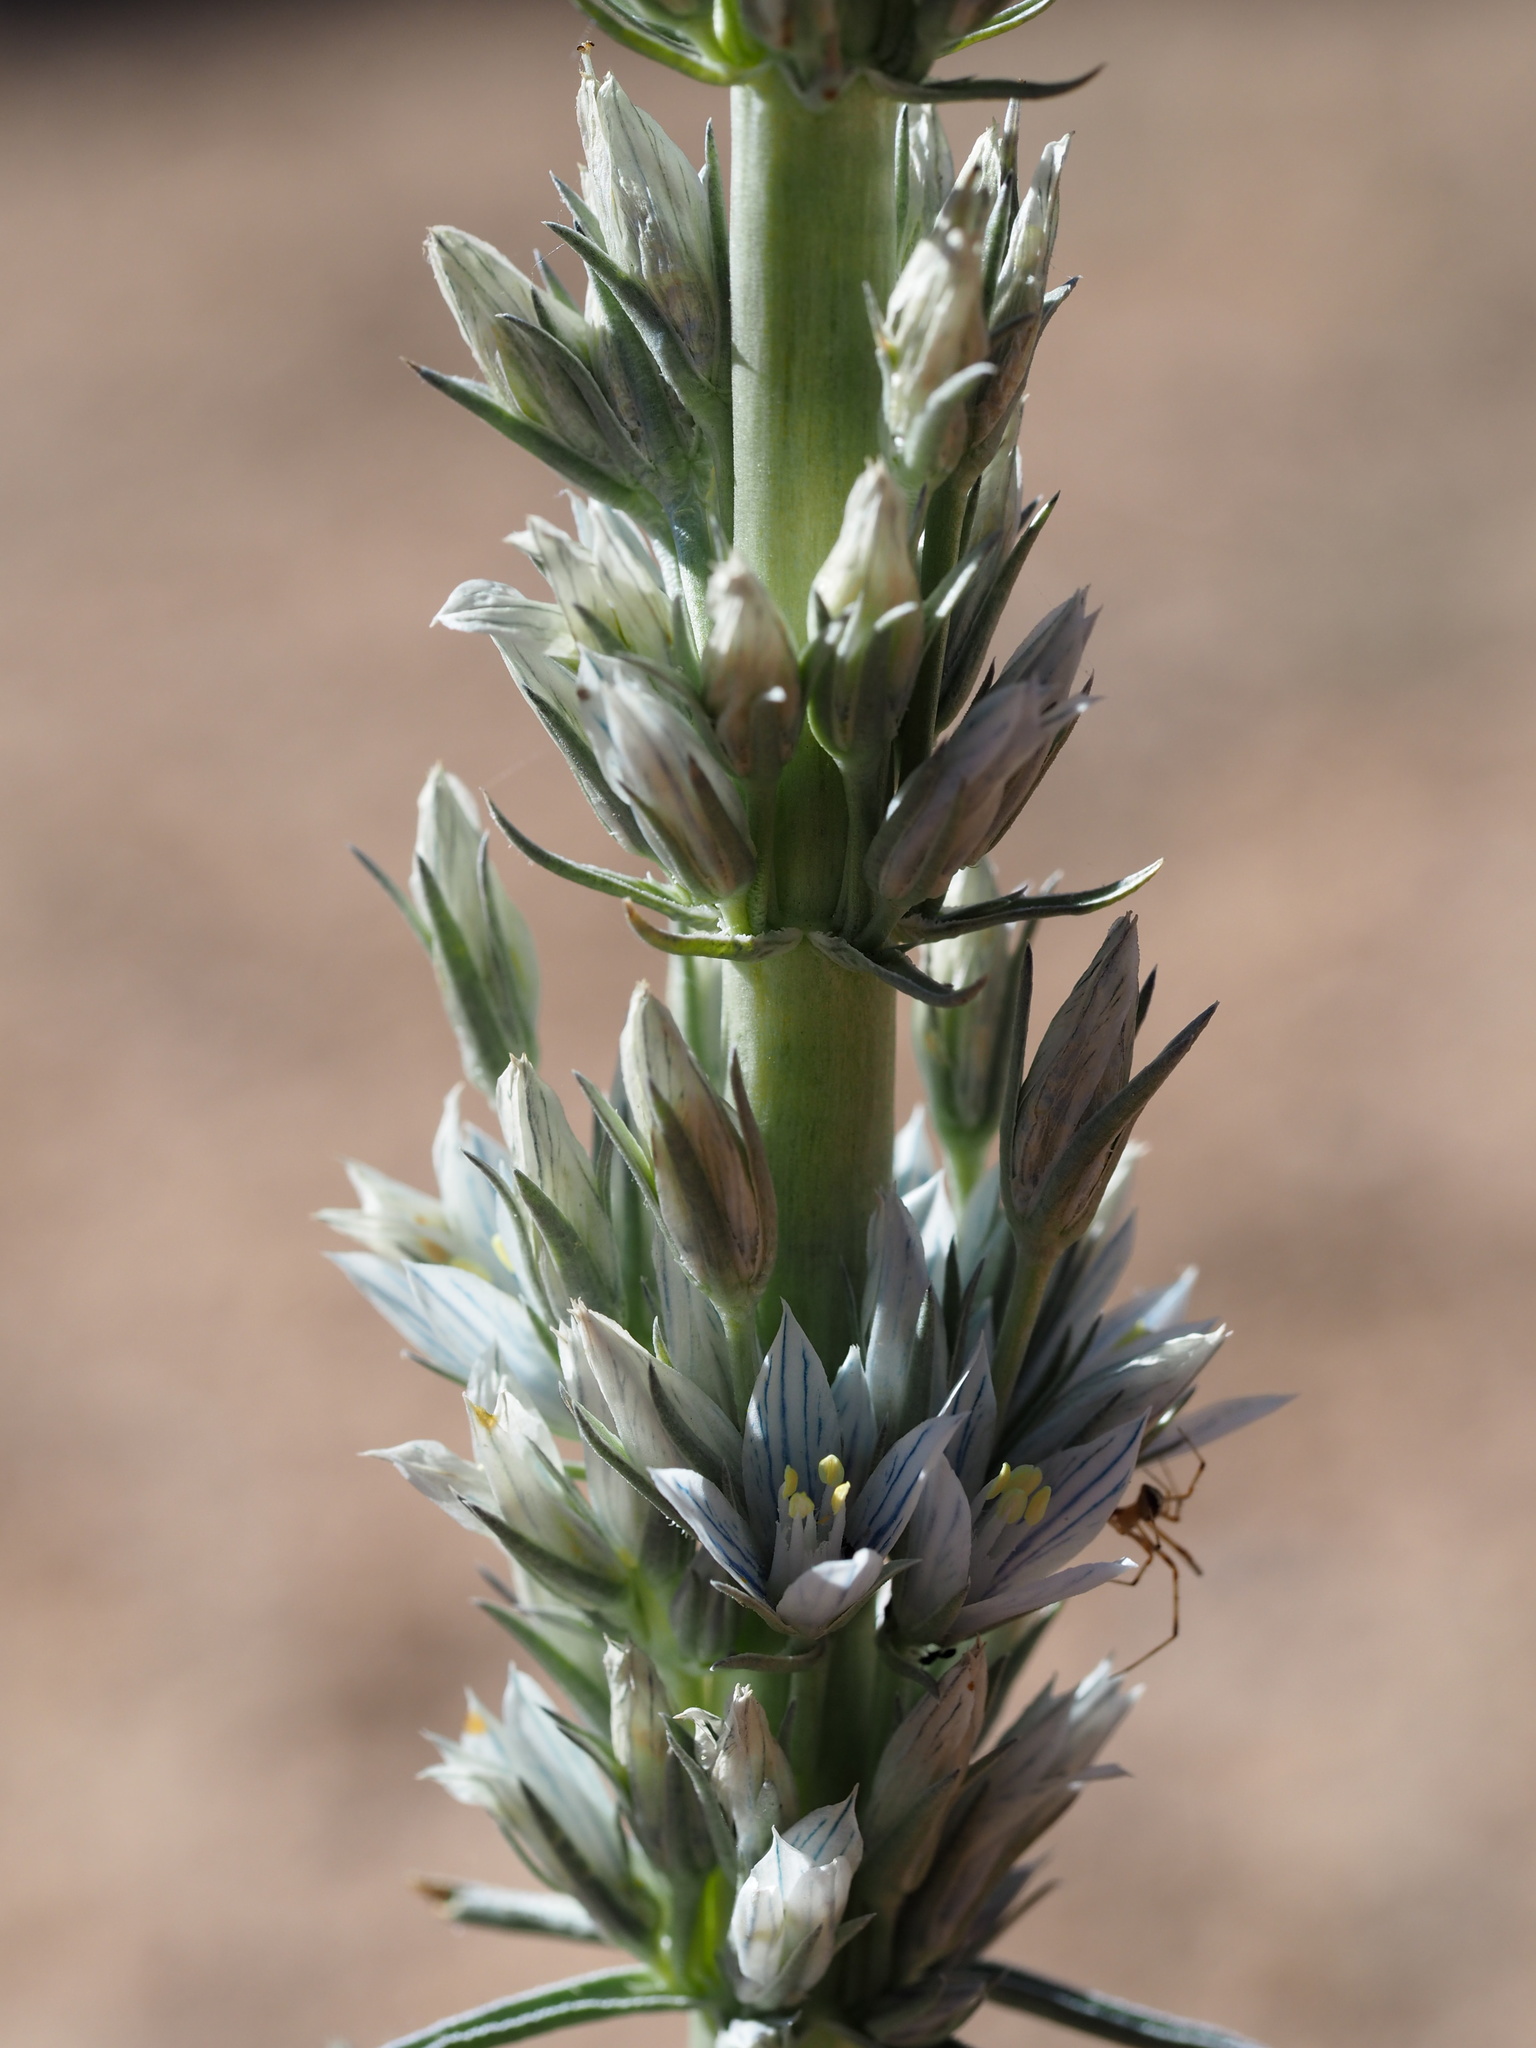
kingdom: Plantae
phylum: Tracheophyta
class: Magnoliopsida
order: Gentianales
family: Gentianaceae
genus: Frasera
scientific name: Frasera tubulosa
